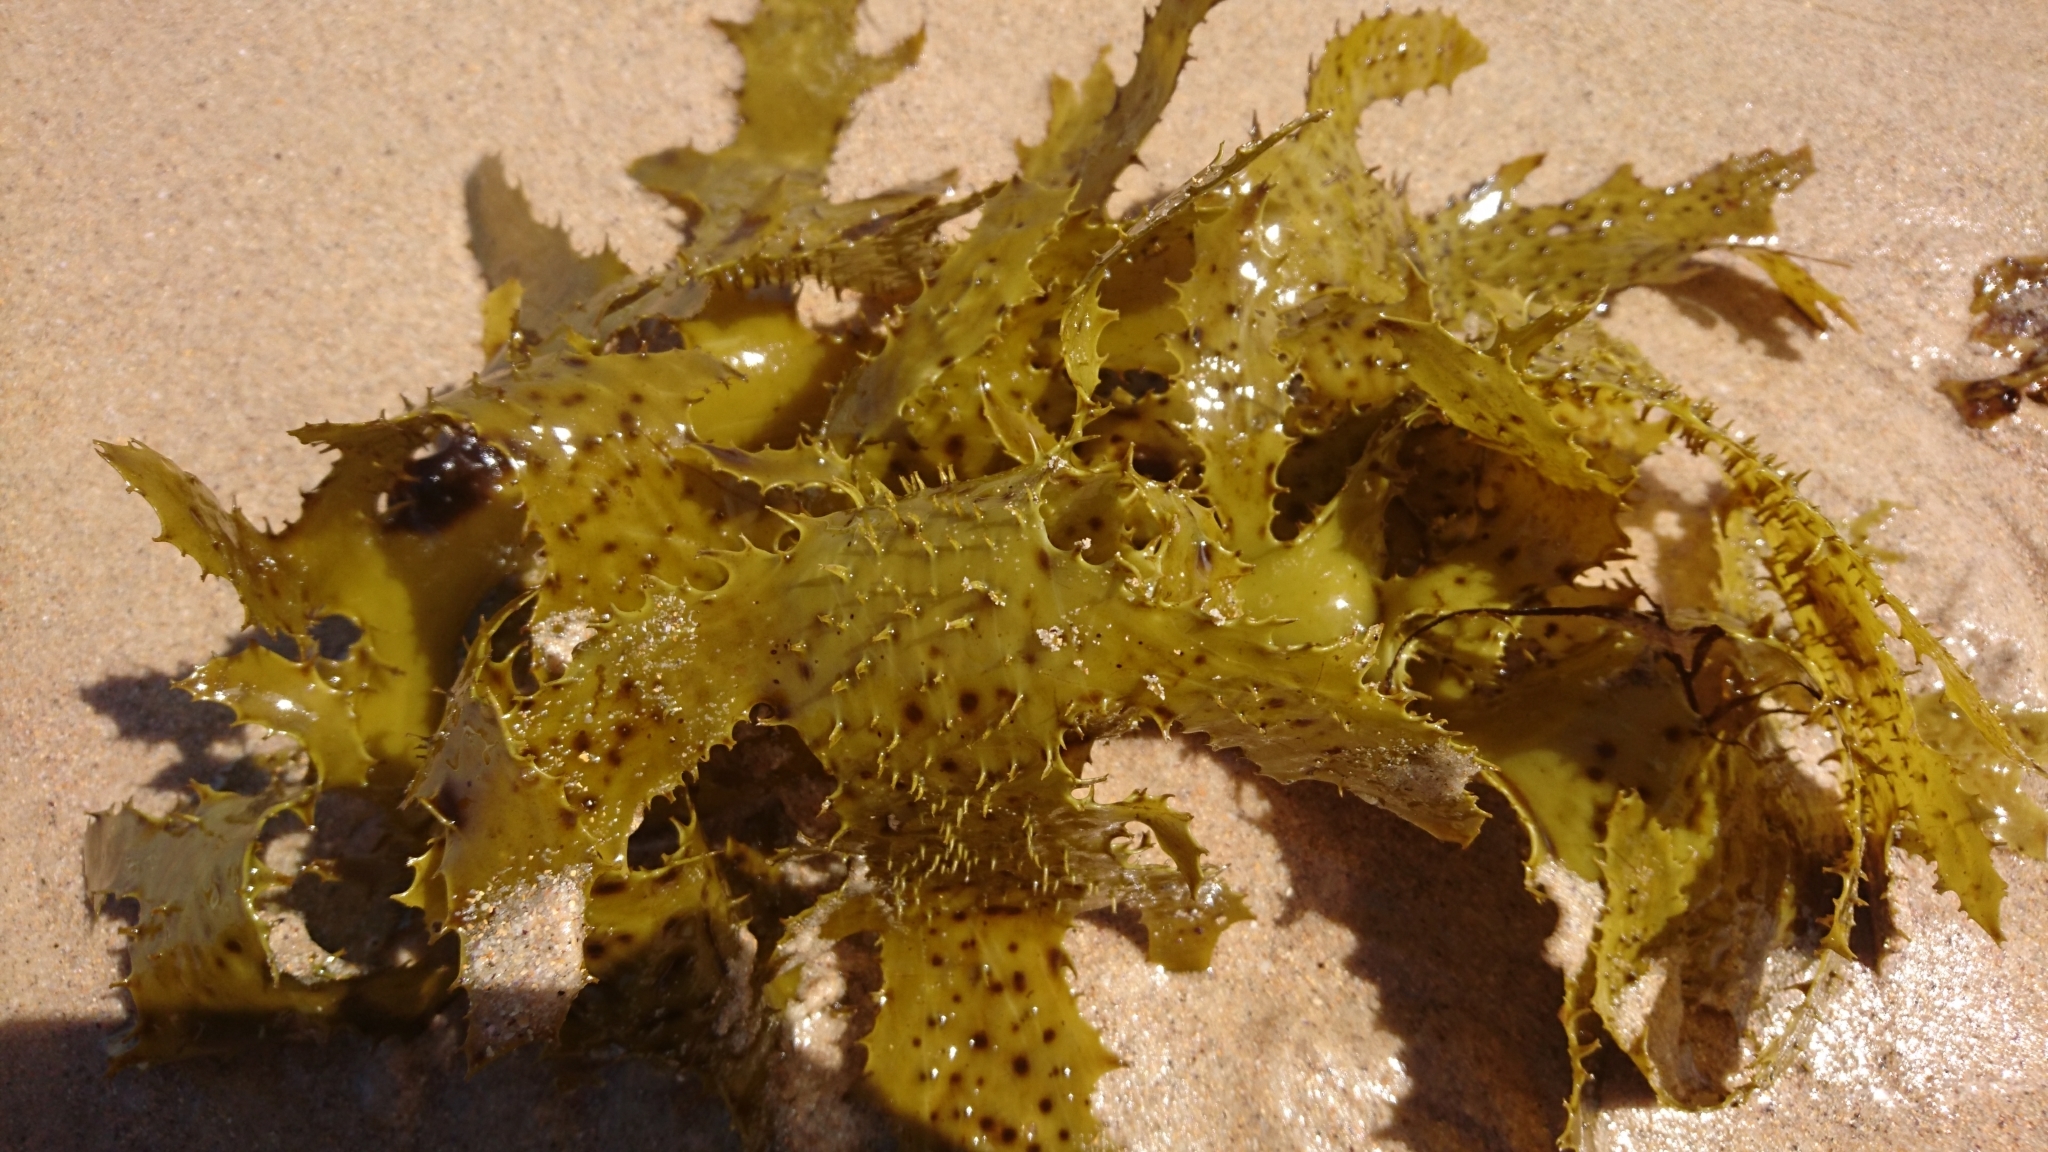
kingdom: Chromista
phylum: Ochrophyta
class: Phaeophyceae
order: Laminariales
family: Lessoniaceae
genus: Ecklonia
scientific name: Ecklonia radiata
